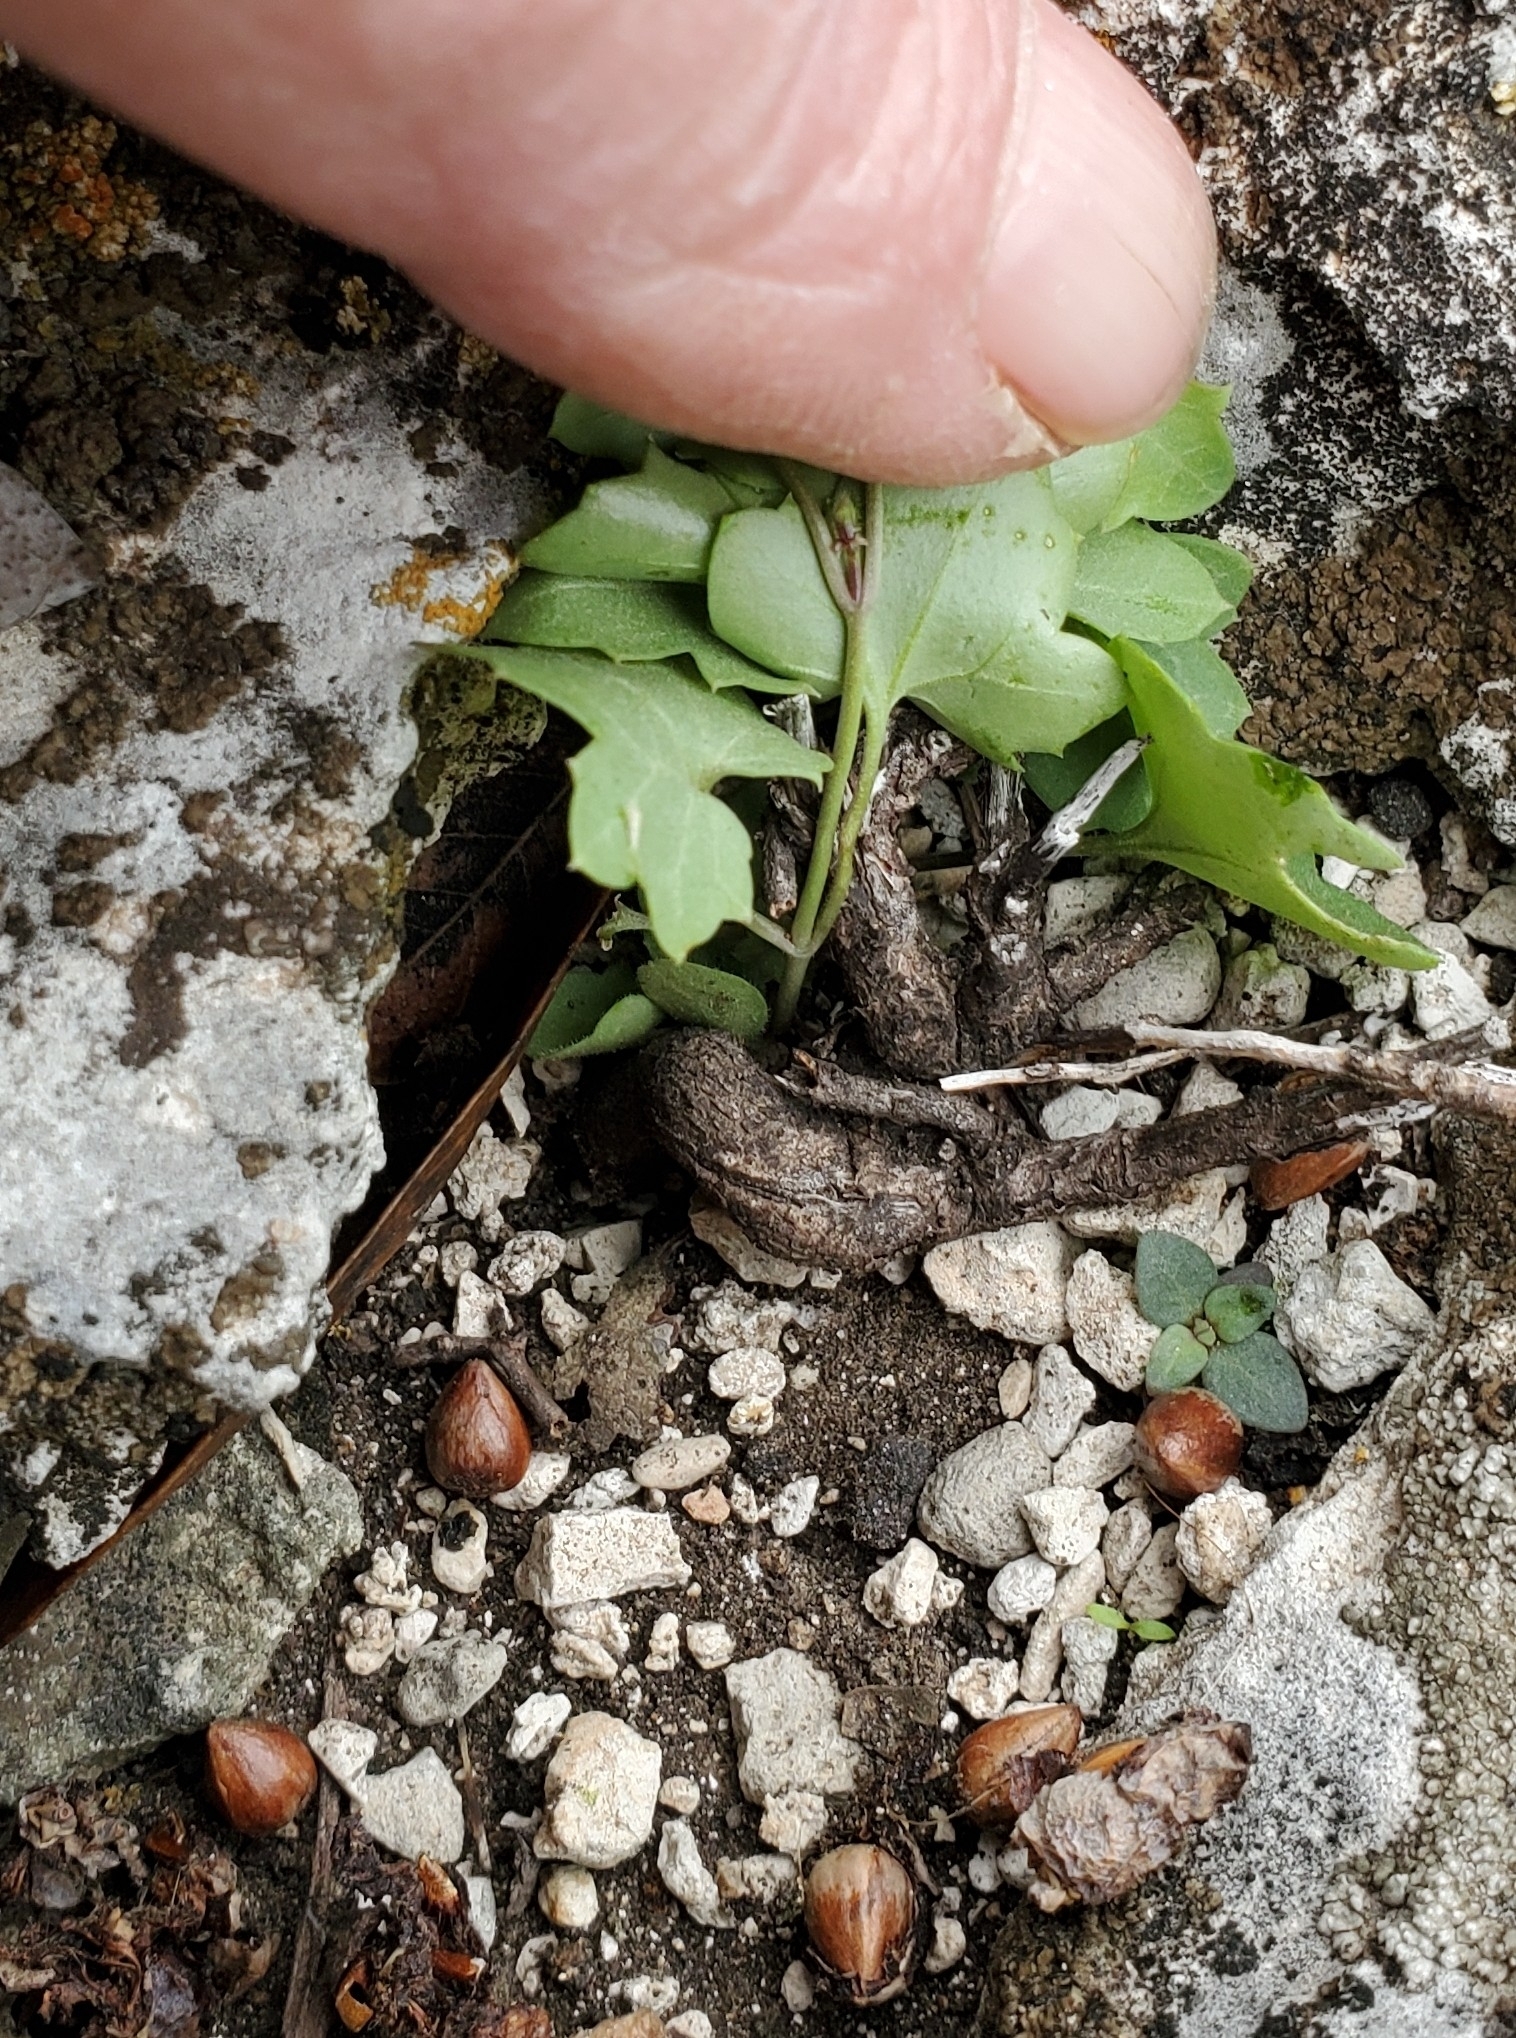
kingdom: Plantae
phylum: Tracheophyta
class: Magnoliopsida
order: Lamiales
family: Plantaginaceae
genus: Maurandella
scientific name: Maurandella antirrhiniflora
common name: Violet twining-snapdragon
